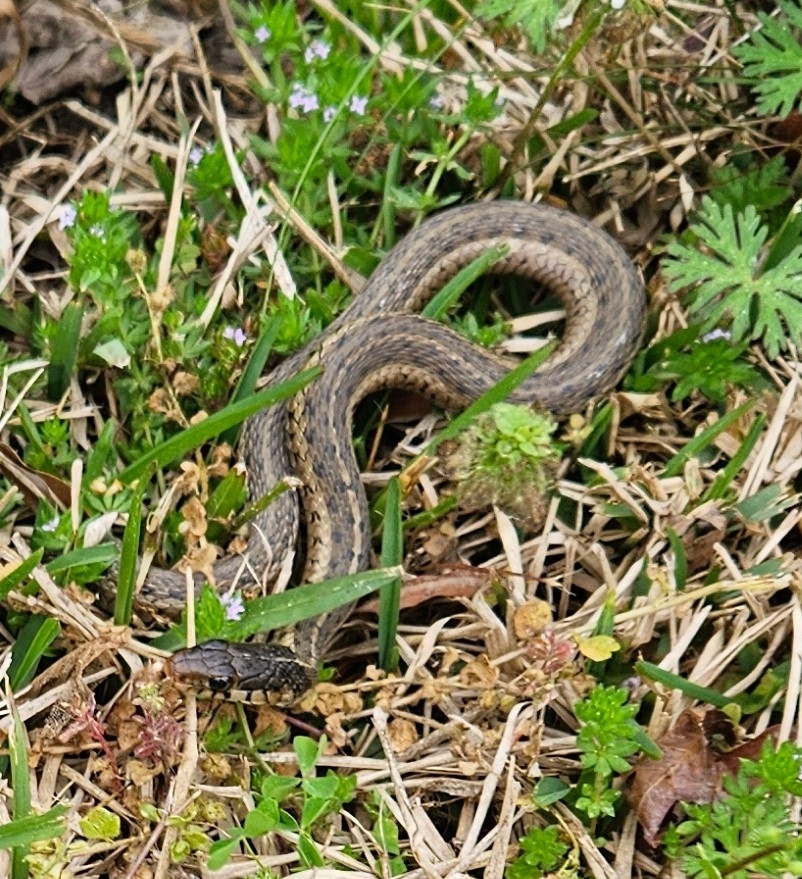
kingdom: Animalia
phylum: Chordata
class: Squamata
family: Colubridae
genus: Thamnophis
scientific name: Thamnophis sirtalis
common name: Common garter snake
